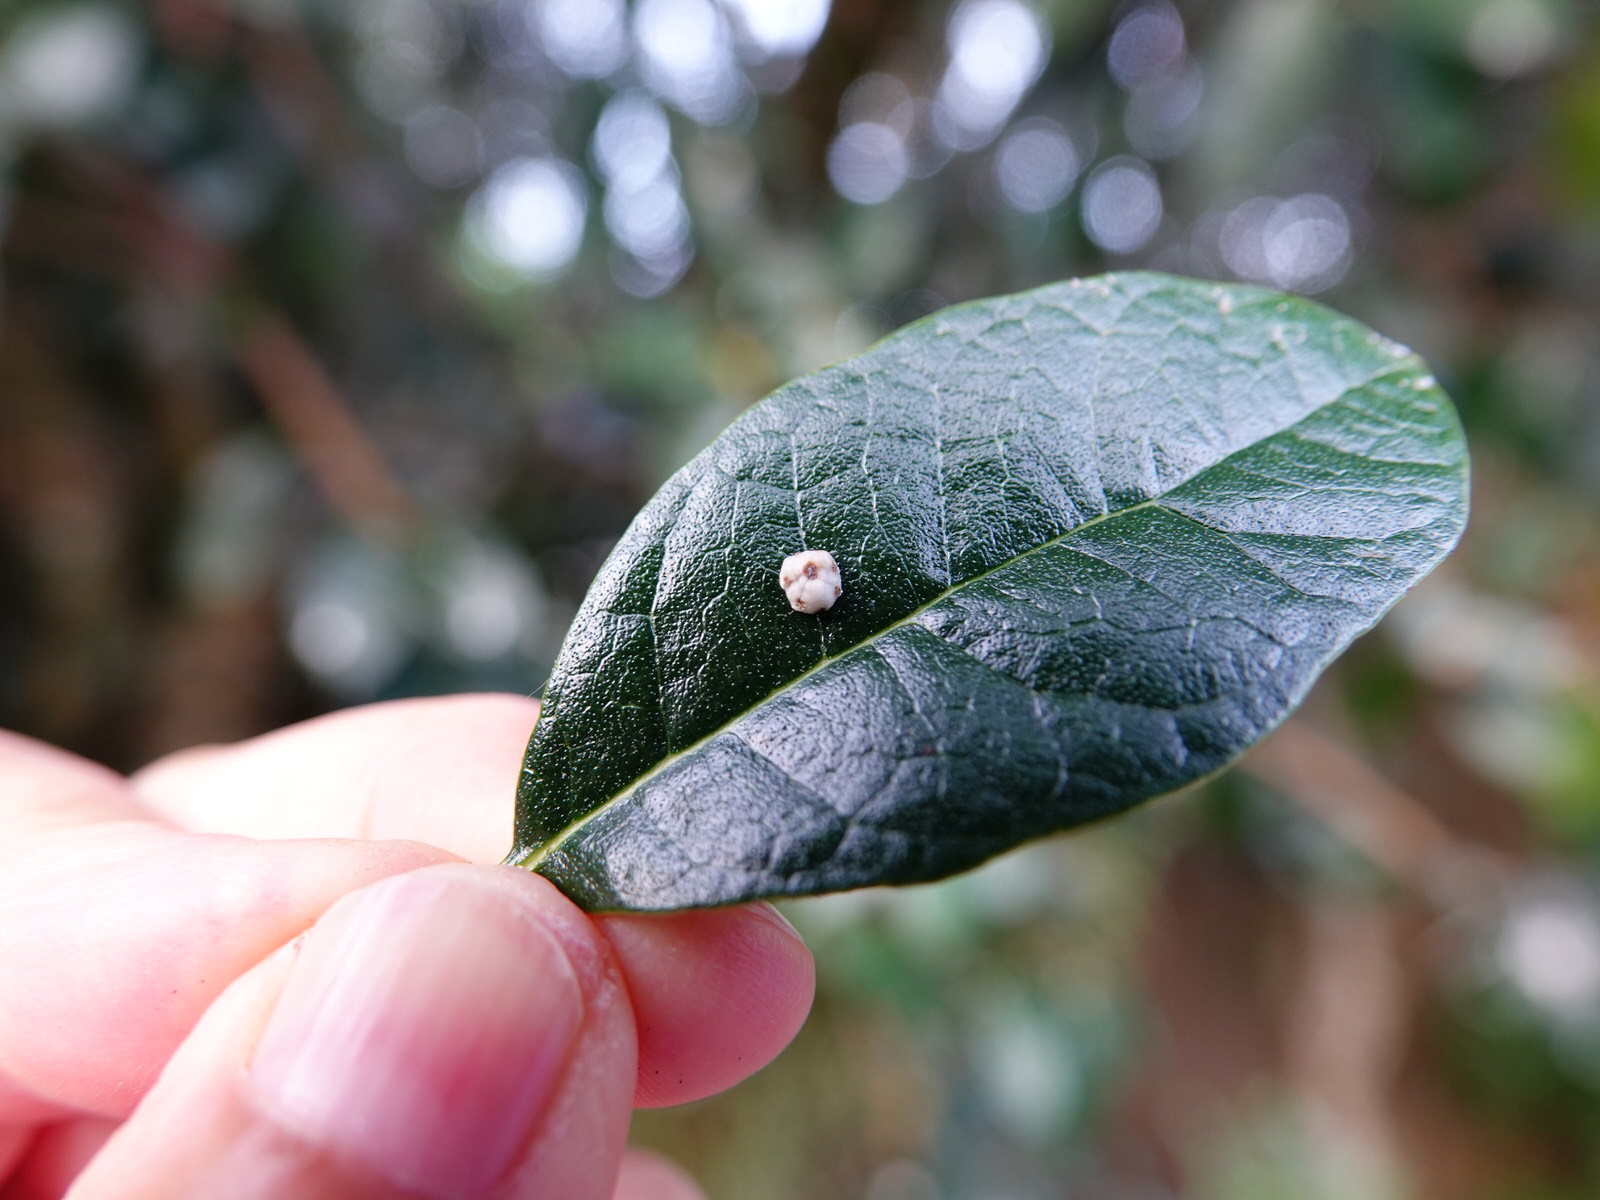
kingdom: Animalia
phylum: Arthropoda
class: Insecta
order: Hemiptera
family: Coccidae
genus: Ceroplastes
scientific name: Ceroplastes sinensis
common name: Hard wax scale
